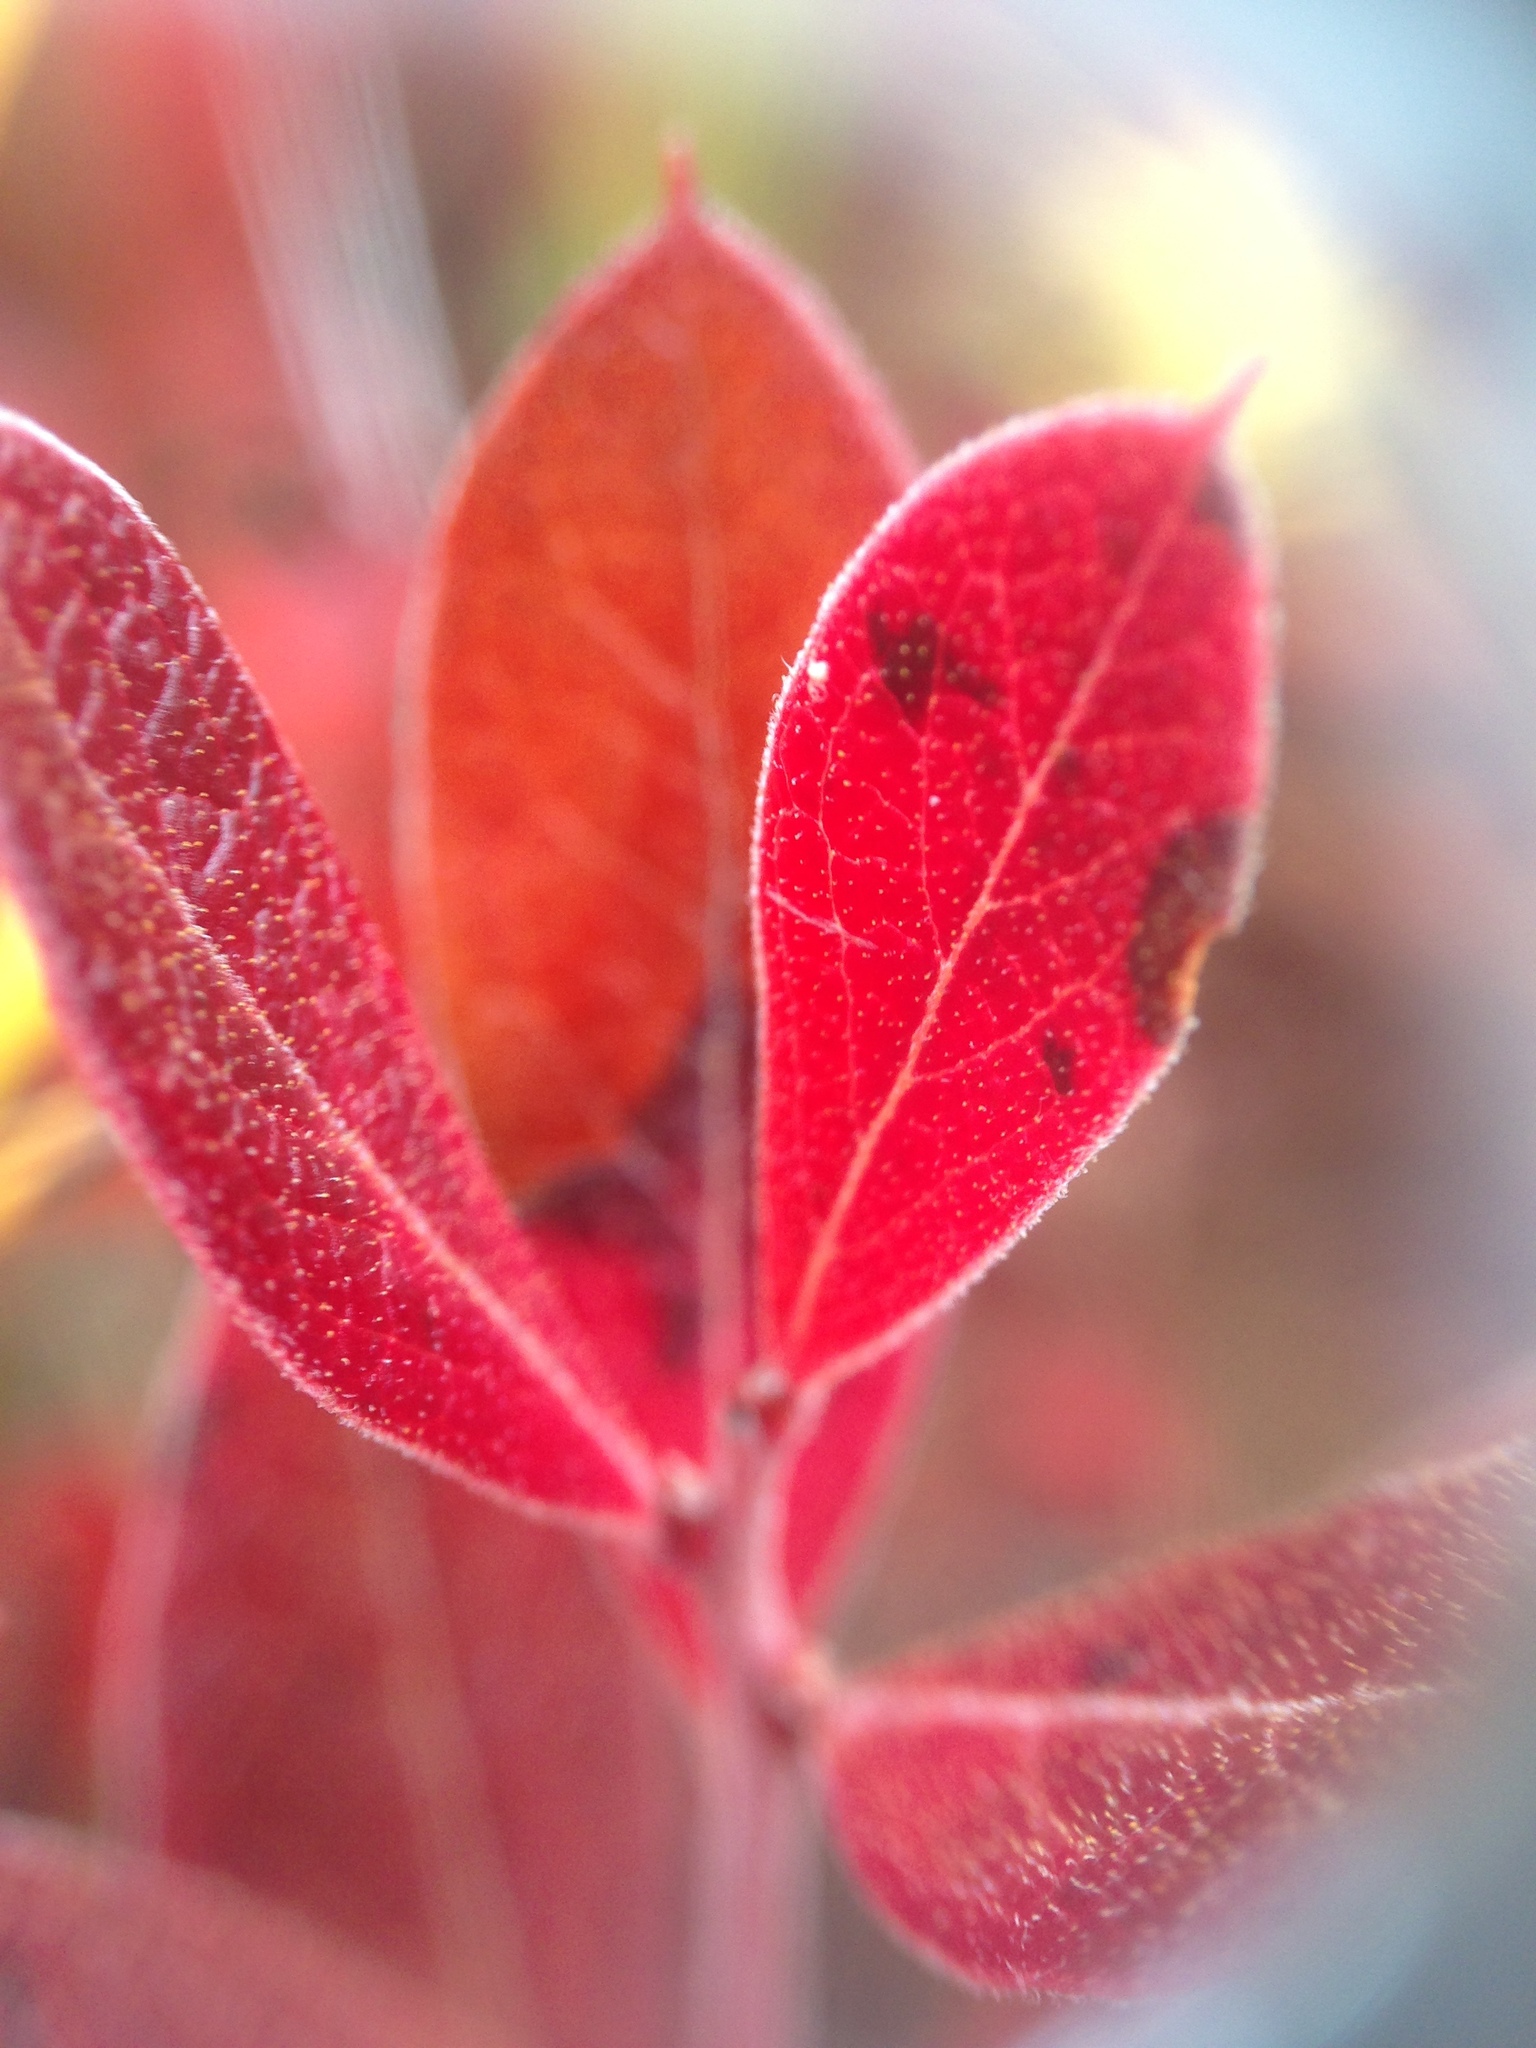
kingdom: Plantae
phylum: Tracheophyta
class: Magnoliopsida
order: Ericales
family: Ericaceae
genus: Gaylussacia
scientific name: Gaylussacia bigeloviana
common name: Bog huckleberry
